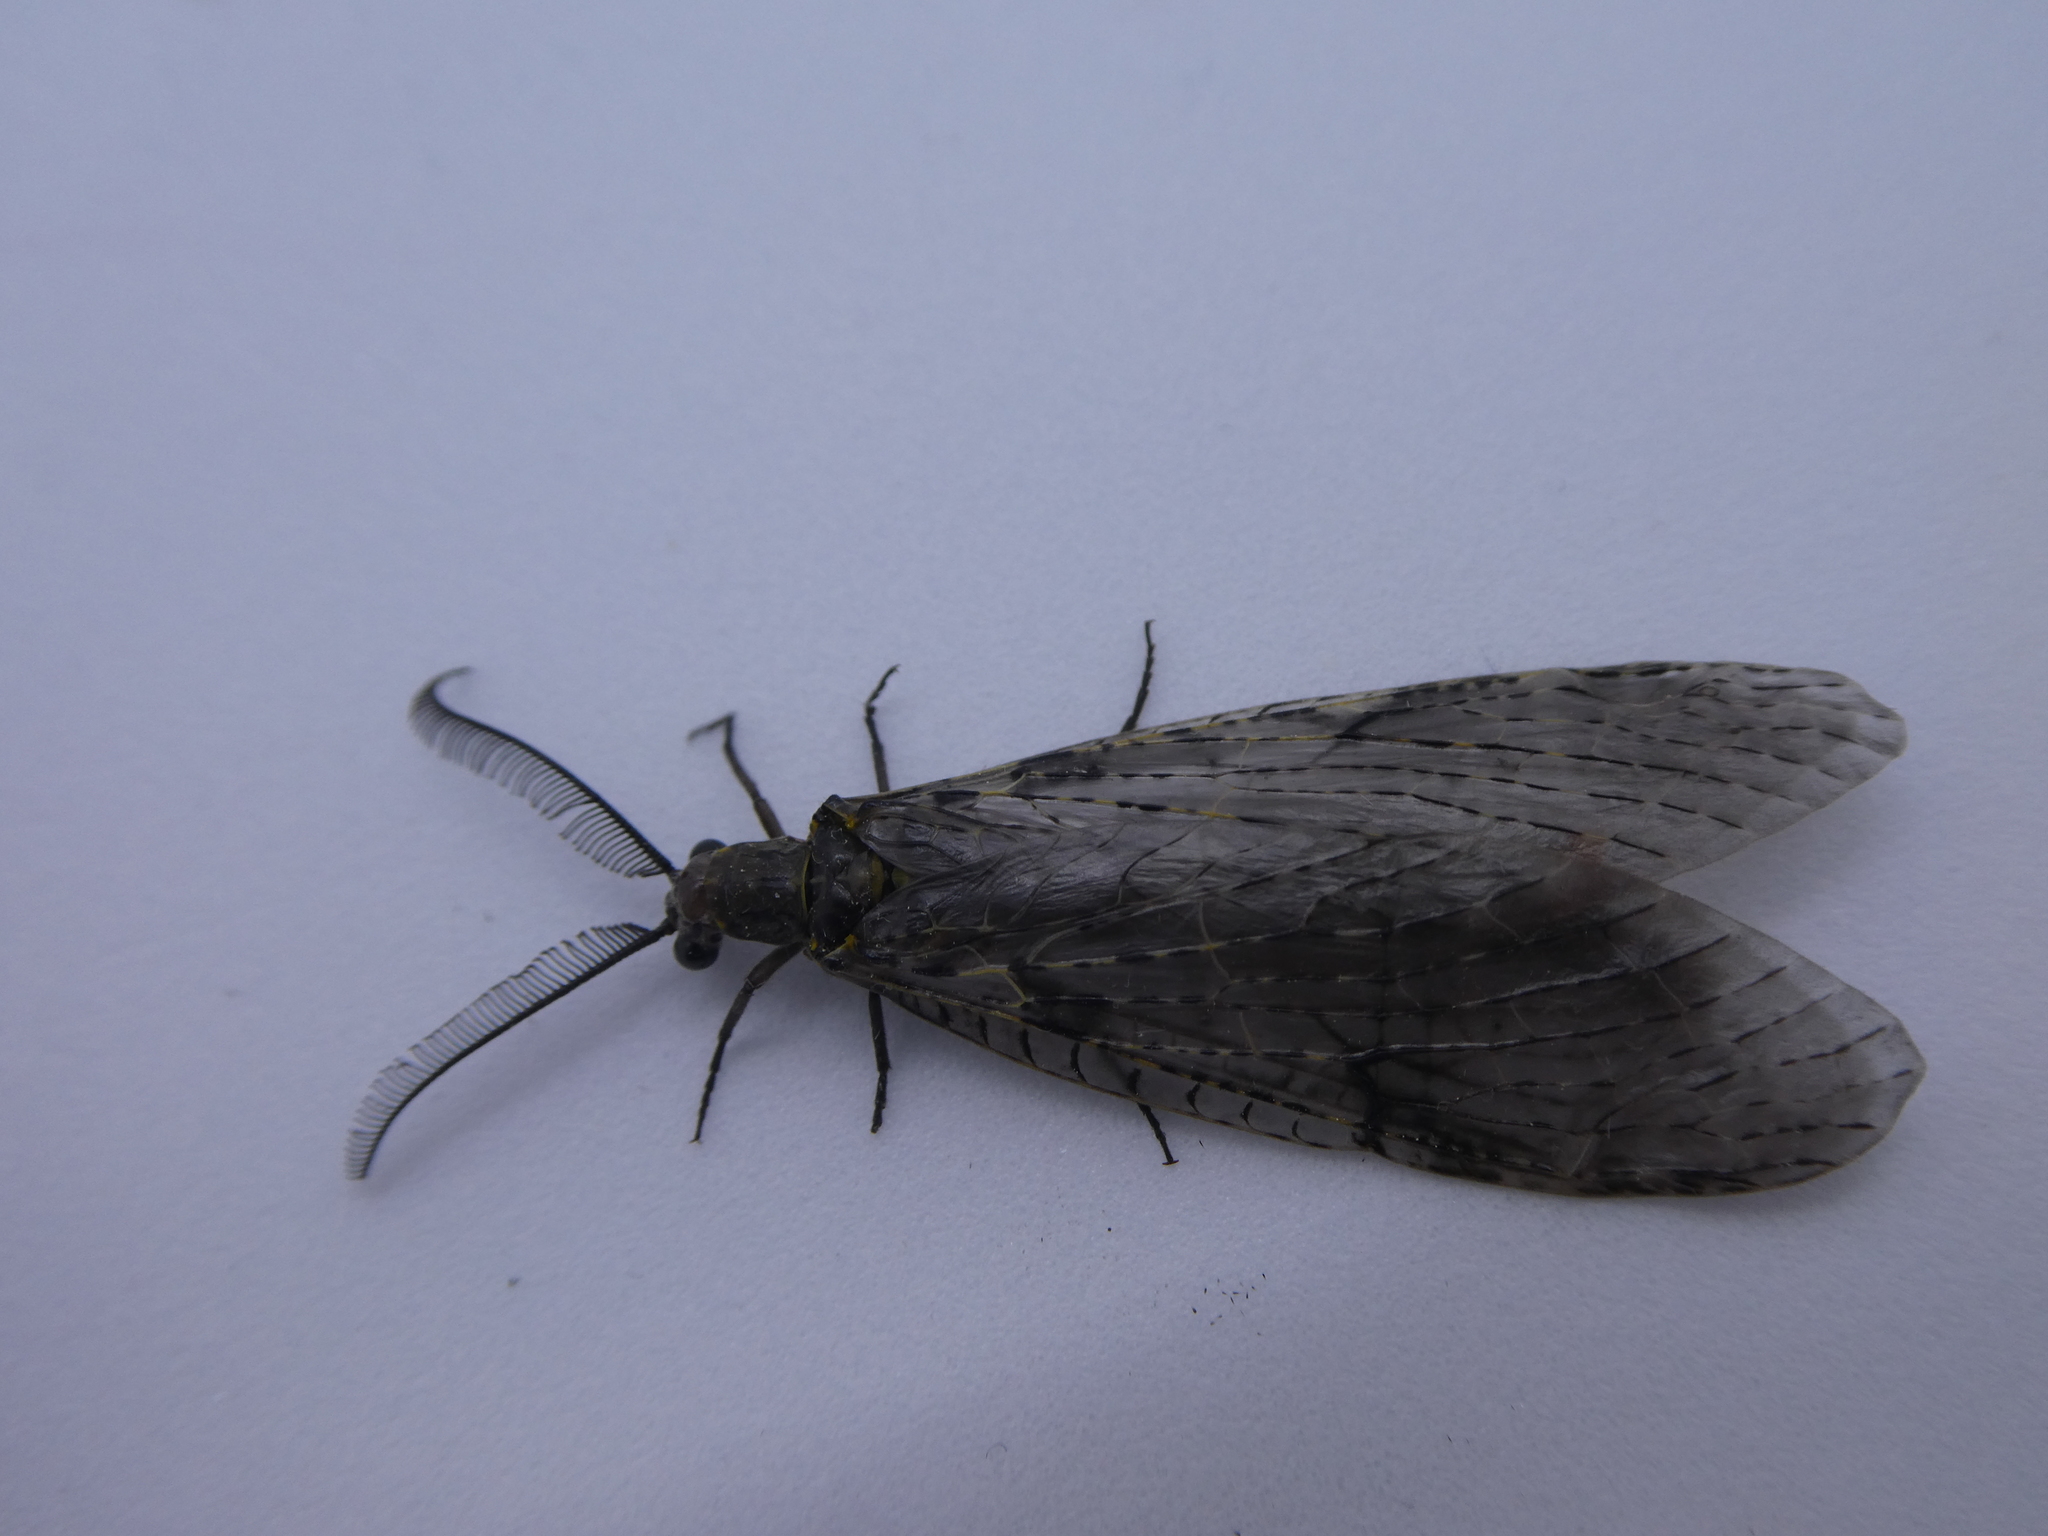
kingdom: Animalia
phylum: Arthropoda
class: Insecta
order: Megaloptera
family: Corydalidae
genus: Chauliodes
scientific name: Chauliodes rastricornis
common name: Spring fishfly
